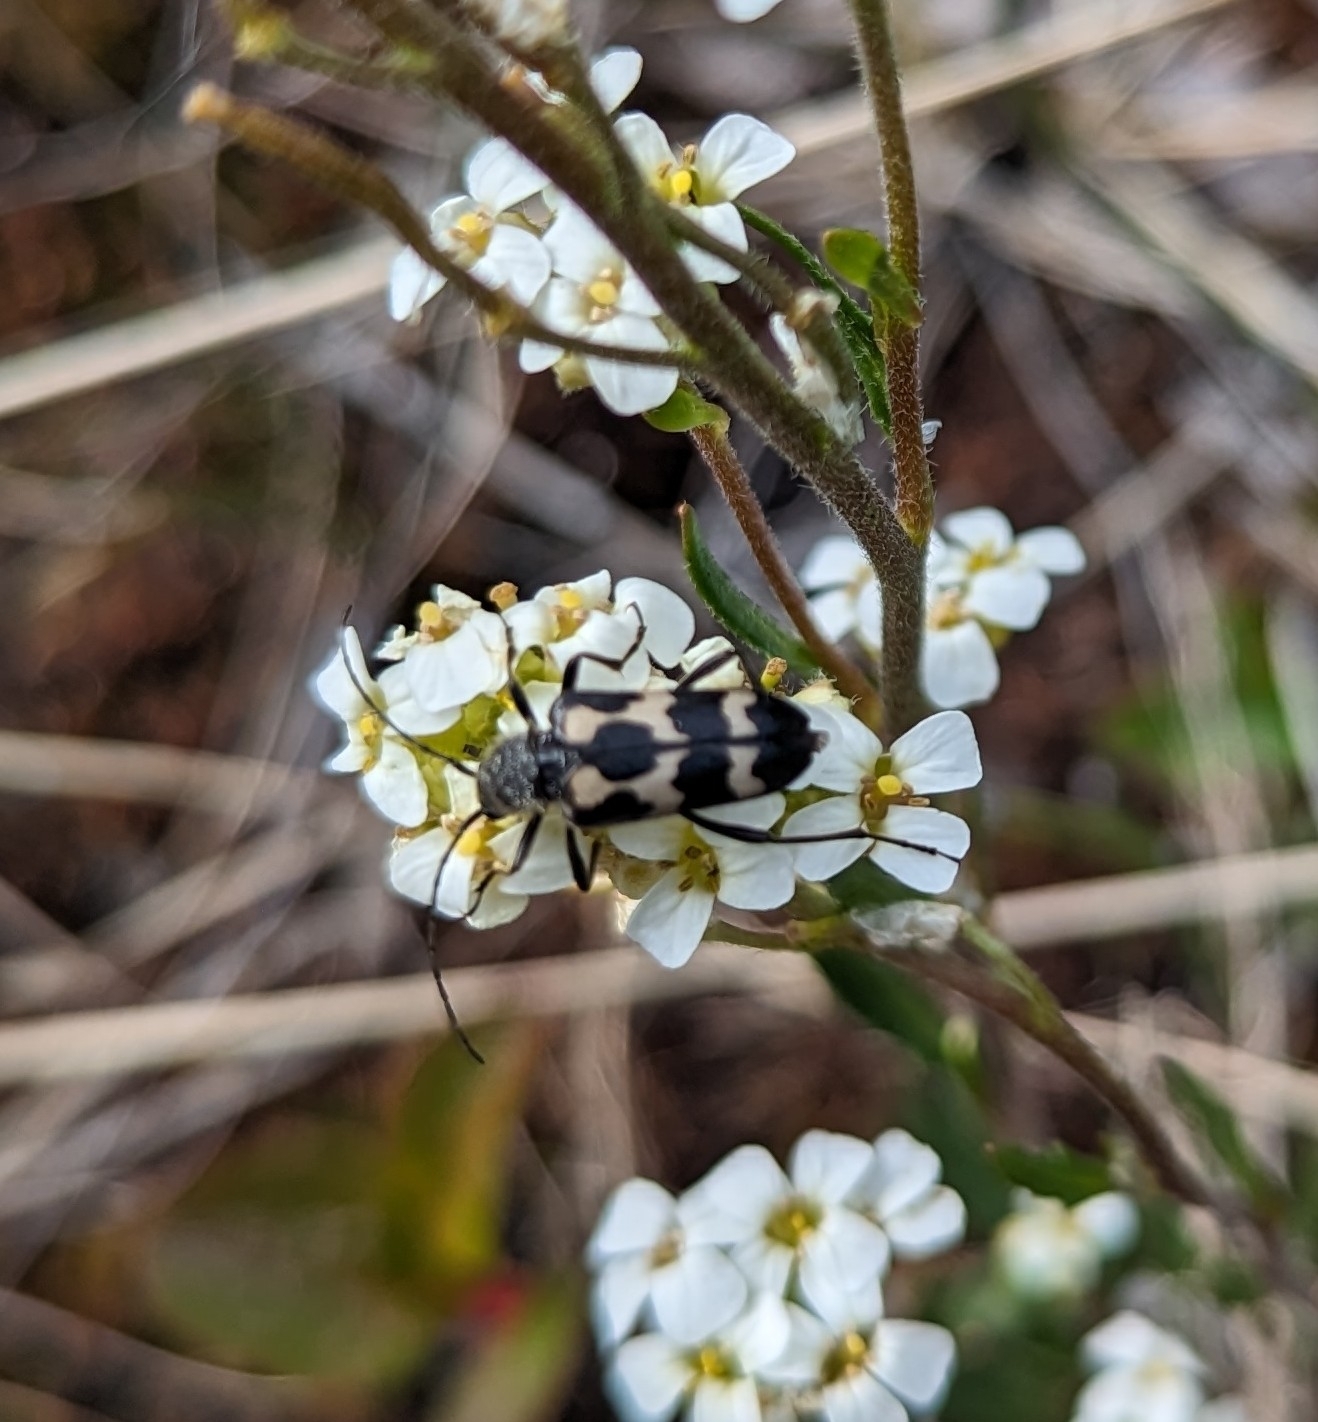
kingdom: Animalia
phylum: Arthropoda
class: Insecta
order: Coleoptera
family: Cerambycidae
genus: Judolia
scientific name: Judolia montivagans
